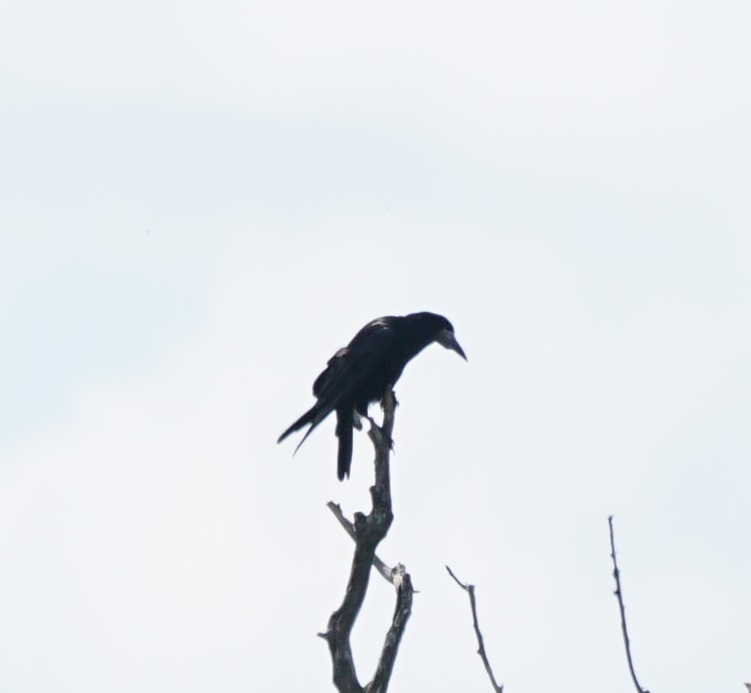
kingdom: Animalia
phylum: Chordata
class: Aves
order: Passeriformes
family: Corvidae
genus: Corvus
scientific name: Corvus frugilegus
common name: Rook
